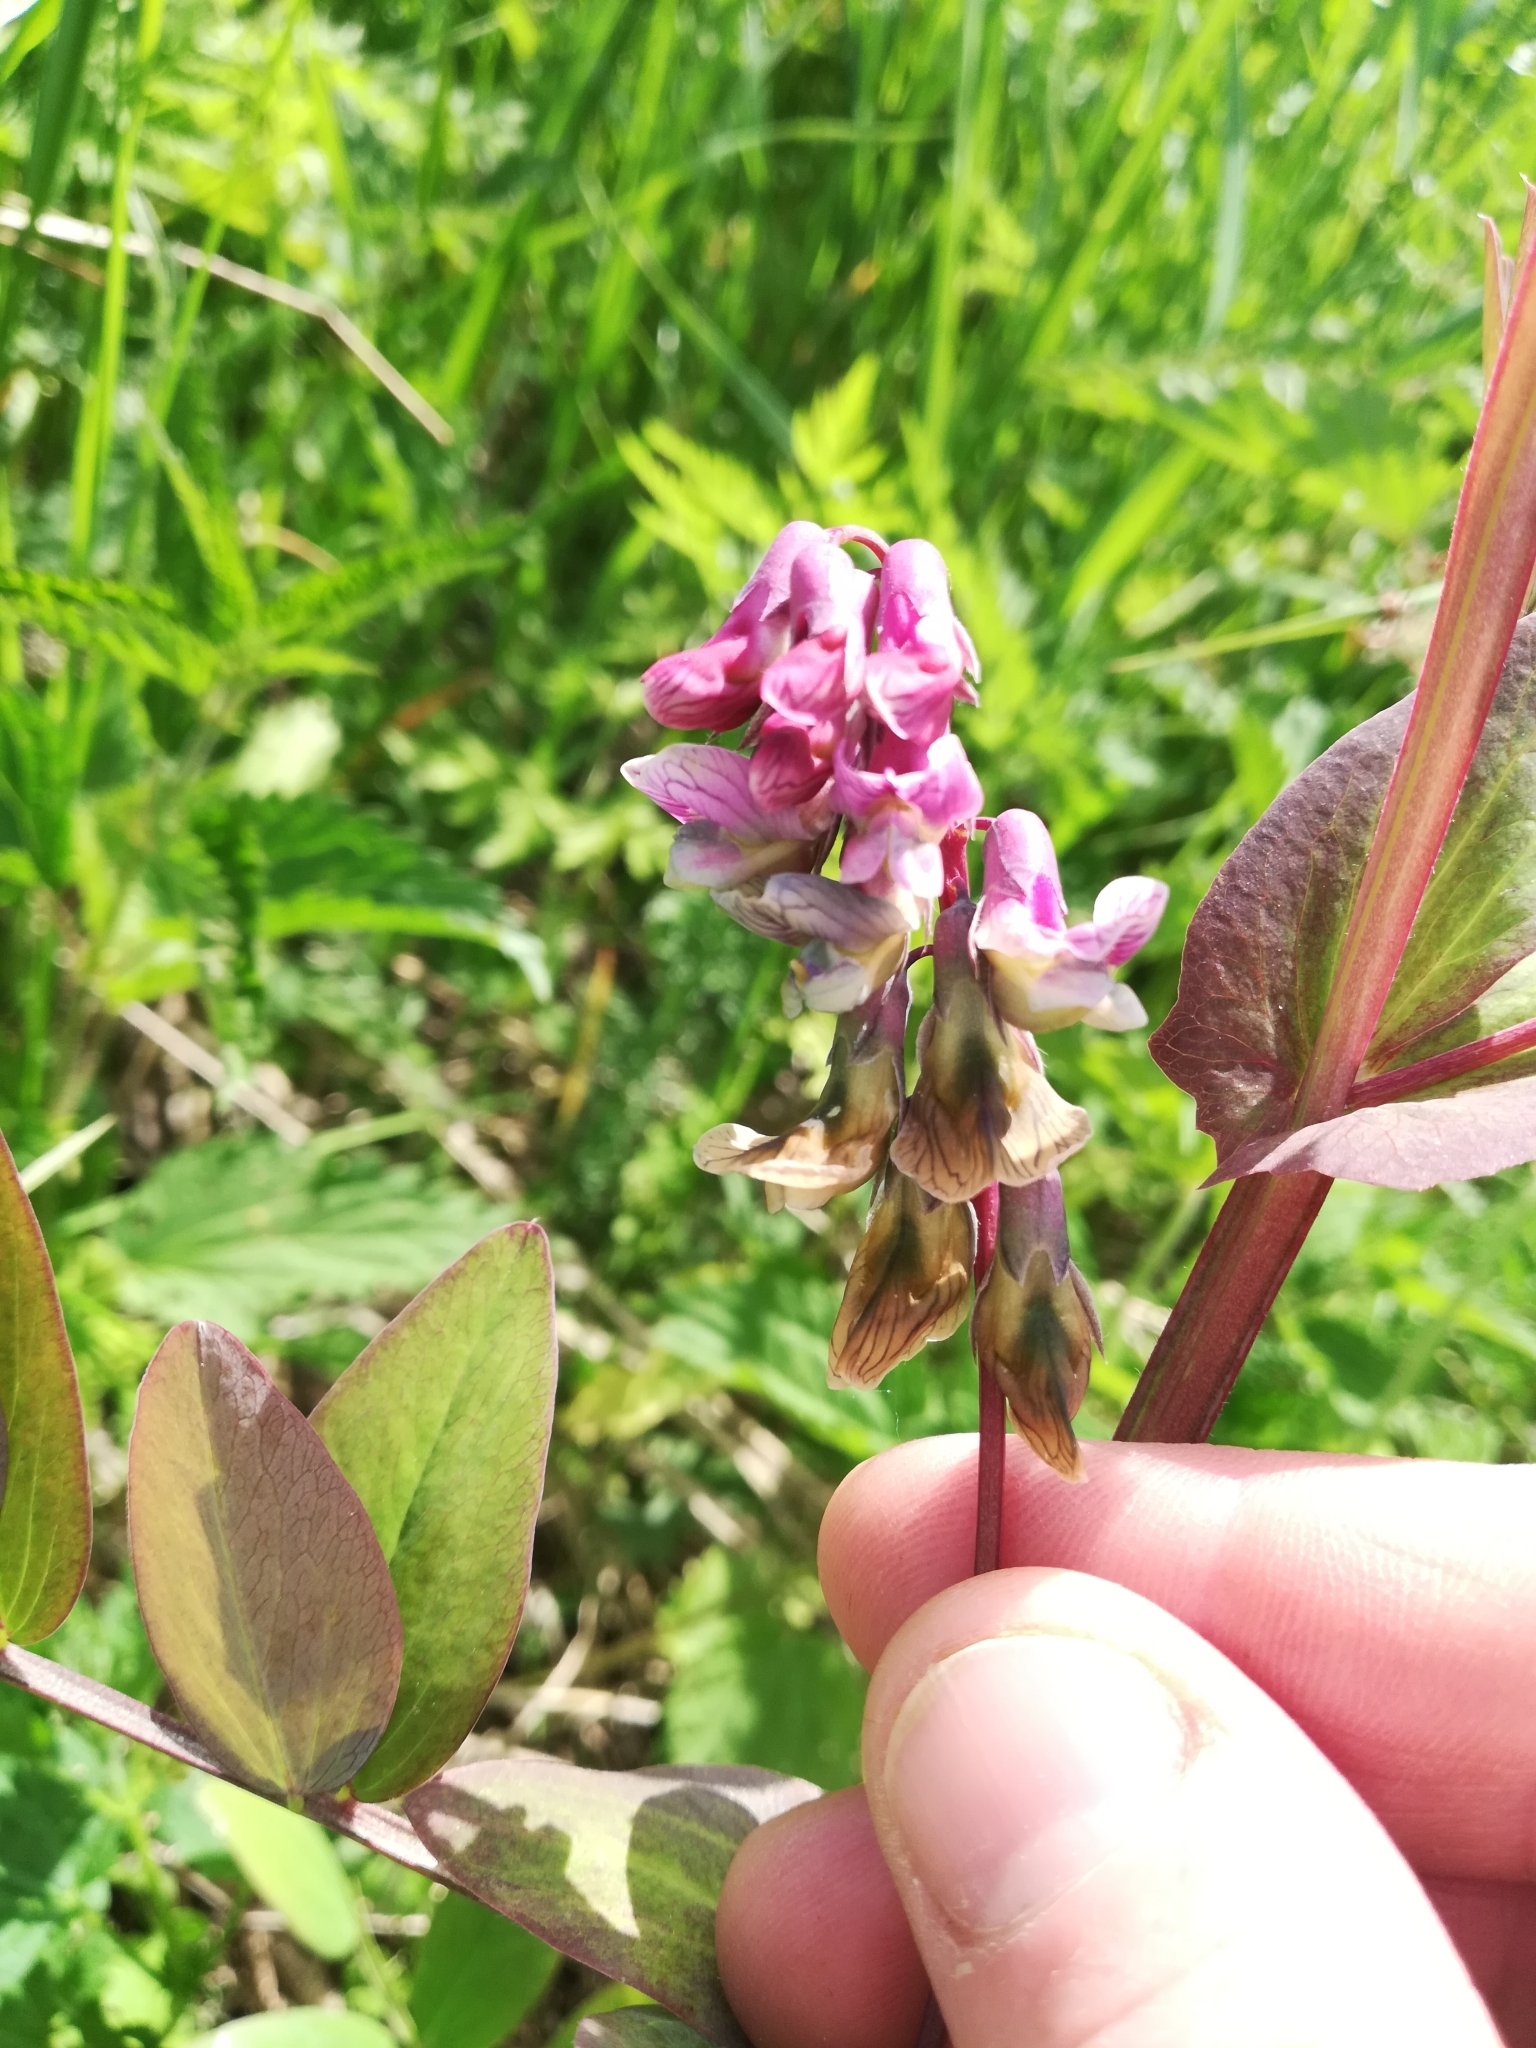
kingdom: Plantae
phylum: Tracheophyta
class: Magnoliopsida
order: Fabales
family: Fabaceae
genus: Lathyrus
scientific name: Lathyrus pisiformis
